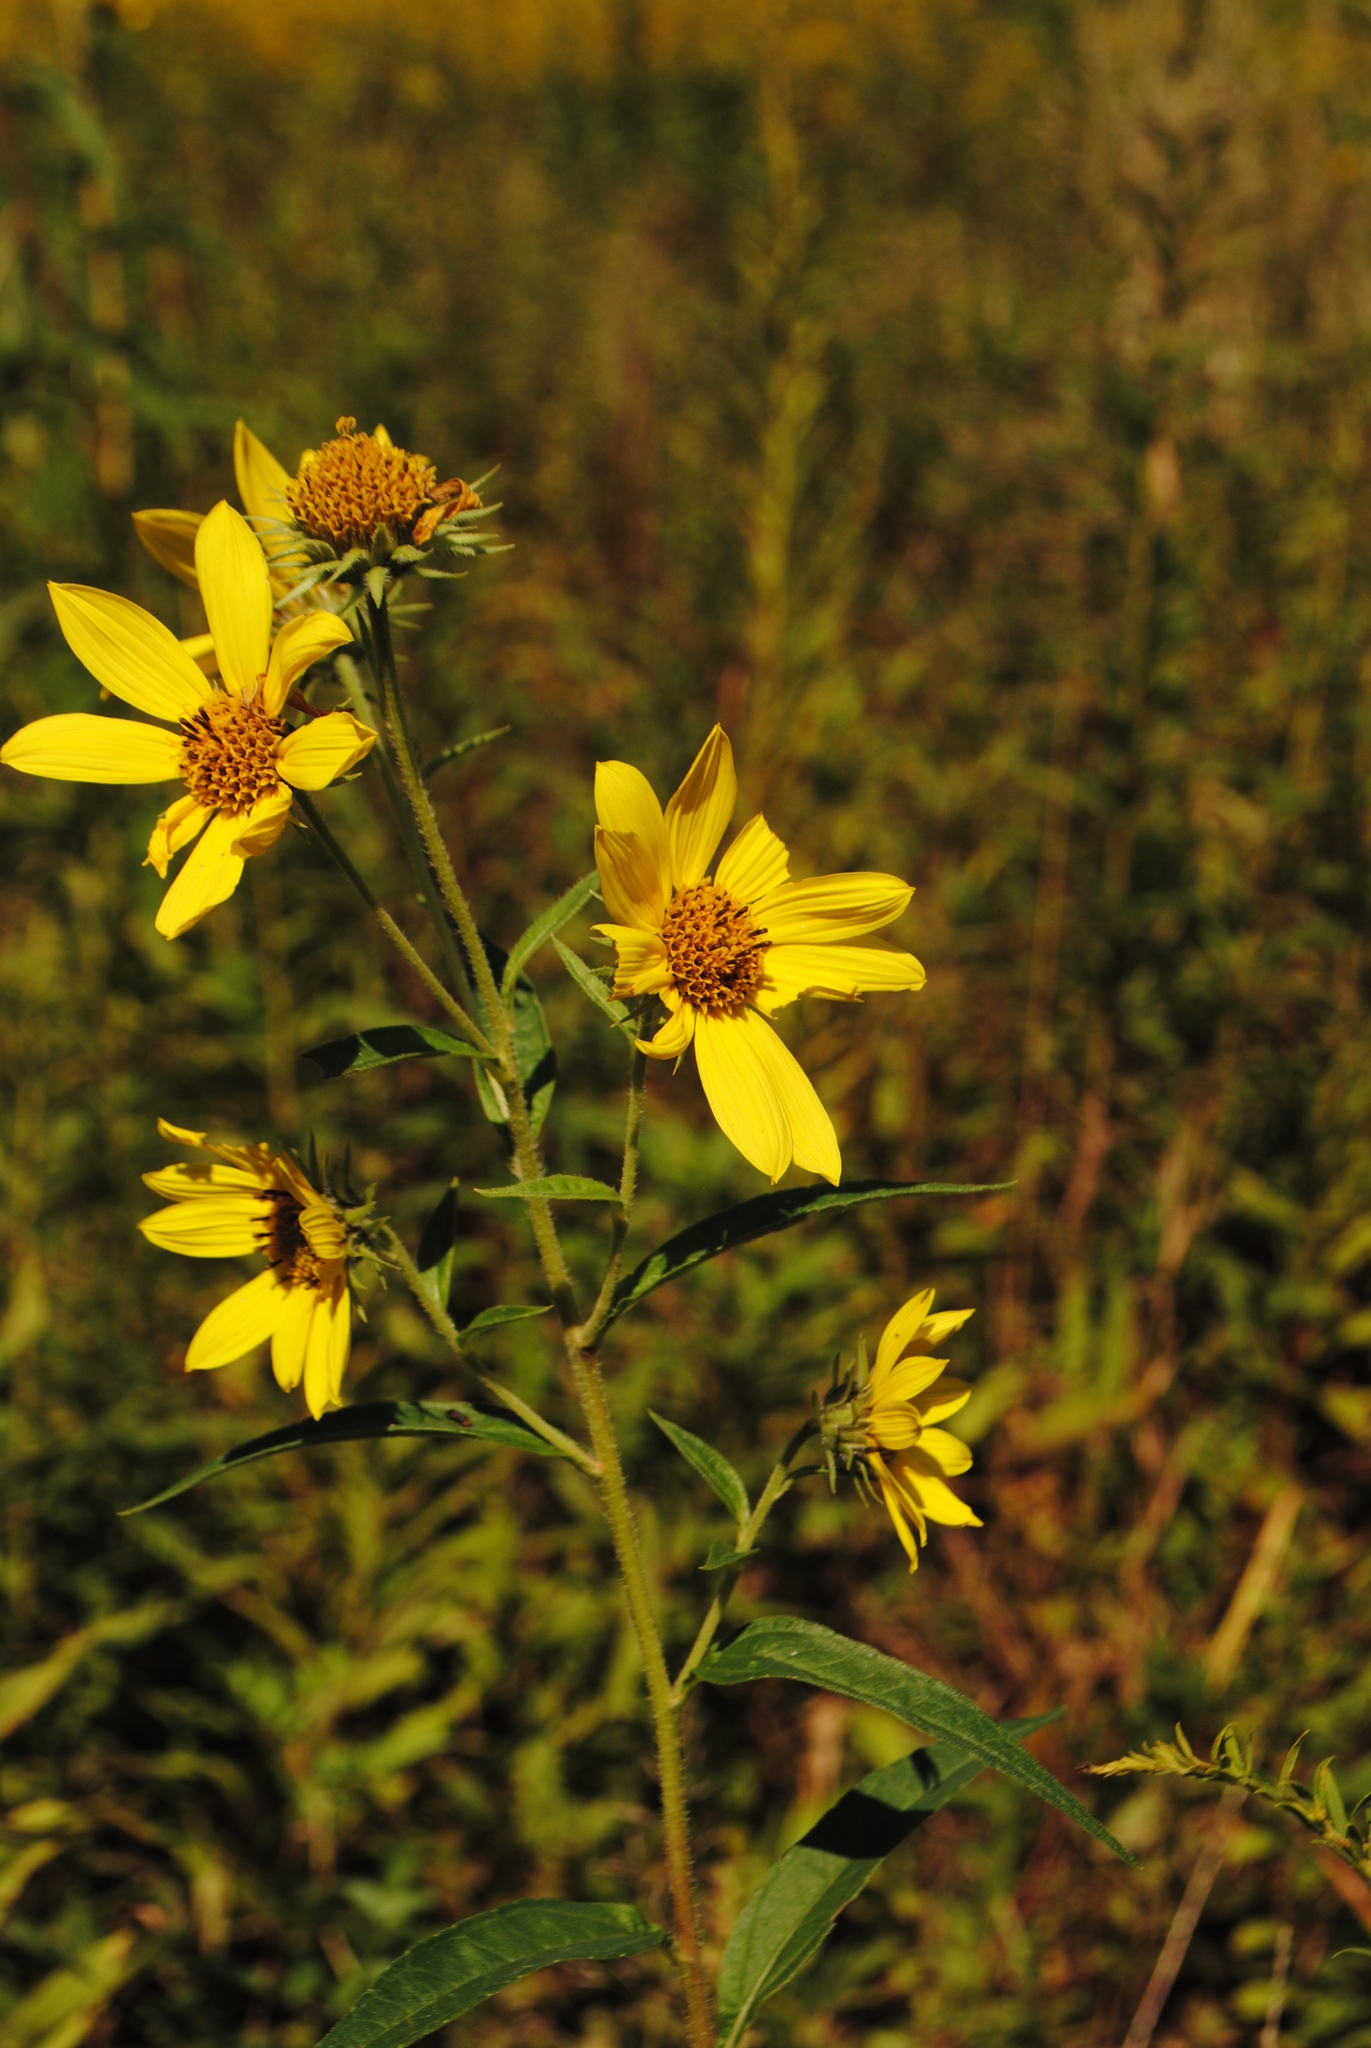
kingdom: Plantae
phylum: Tracheophyta
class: Magnoliopsida
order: Asterales
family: Asteraceae
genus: Helianthus
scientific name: Helianthus giganteus
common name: Giant sunflower
